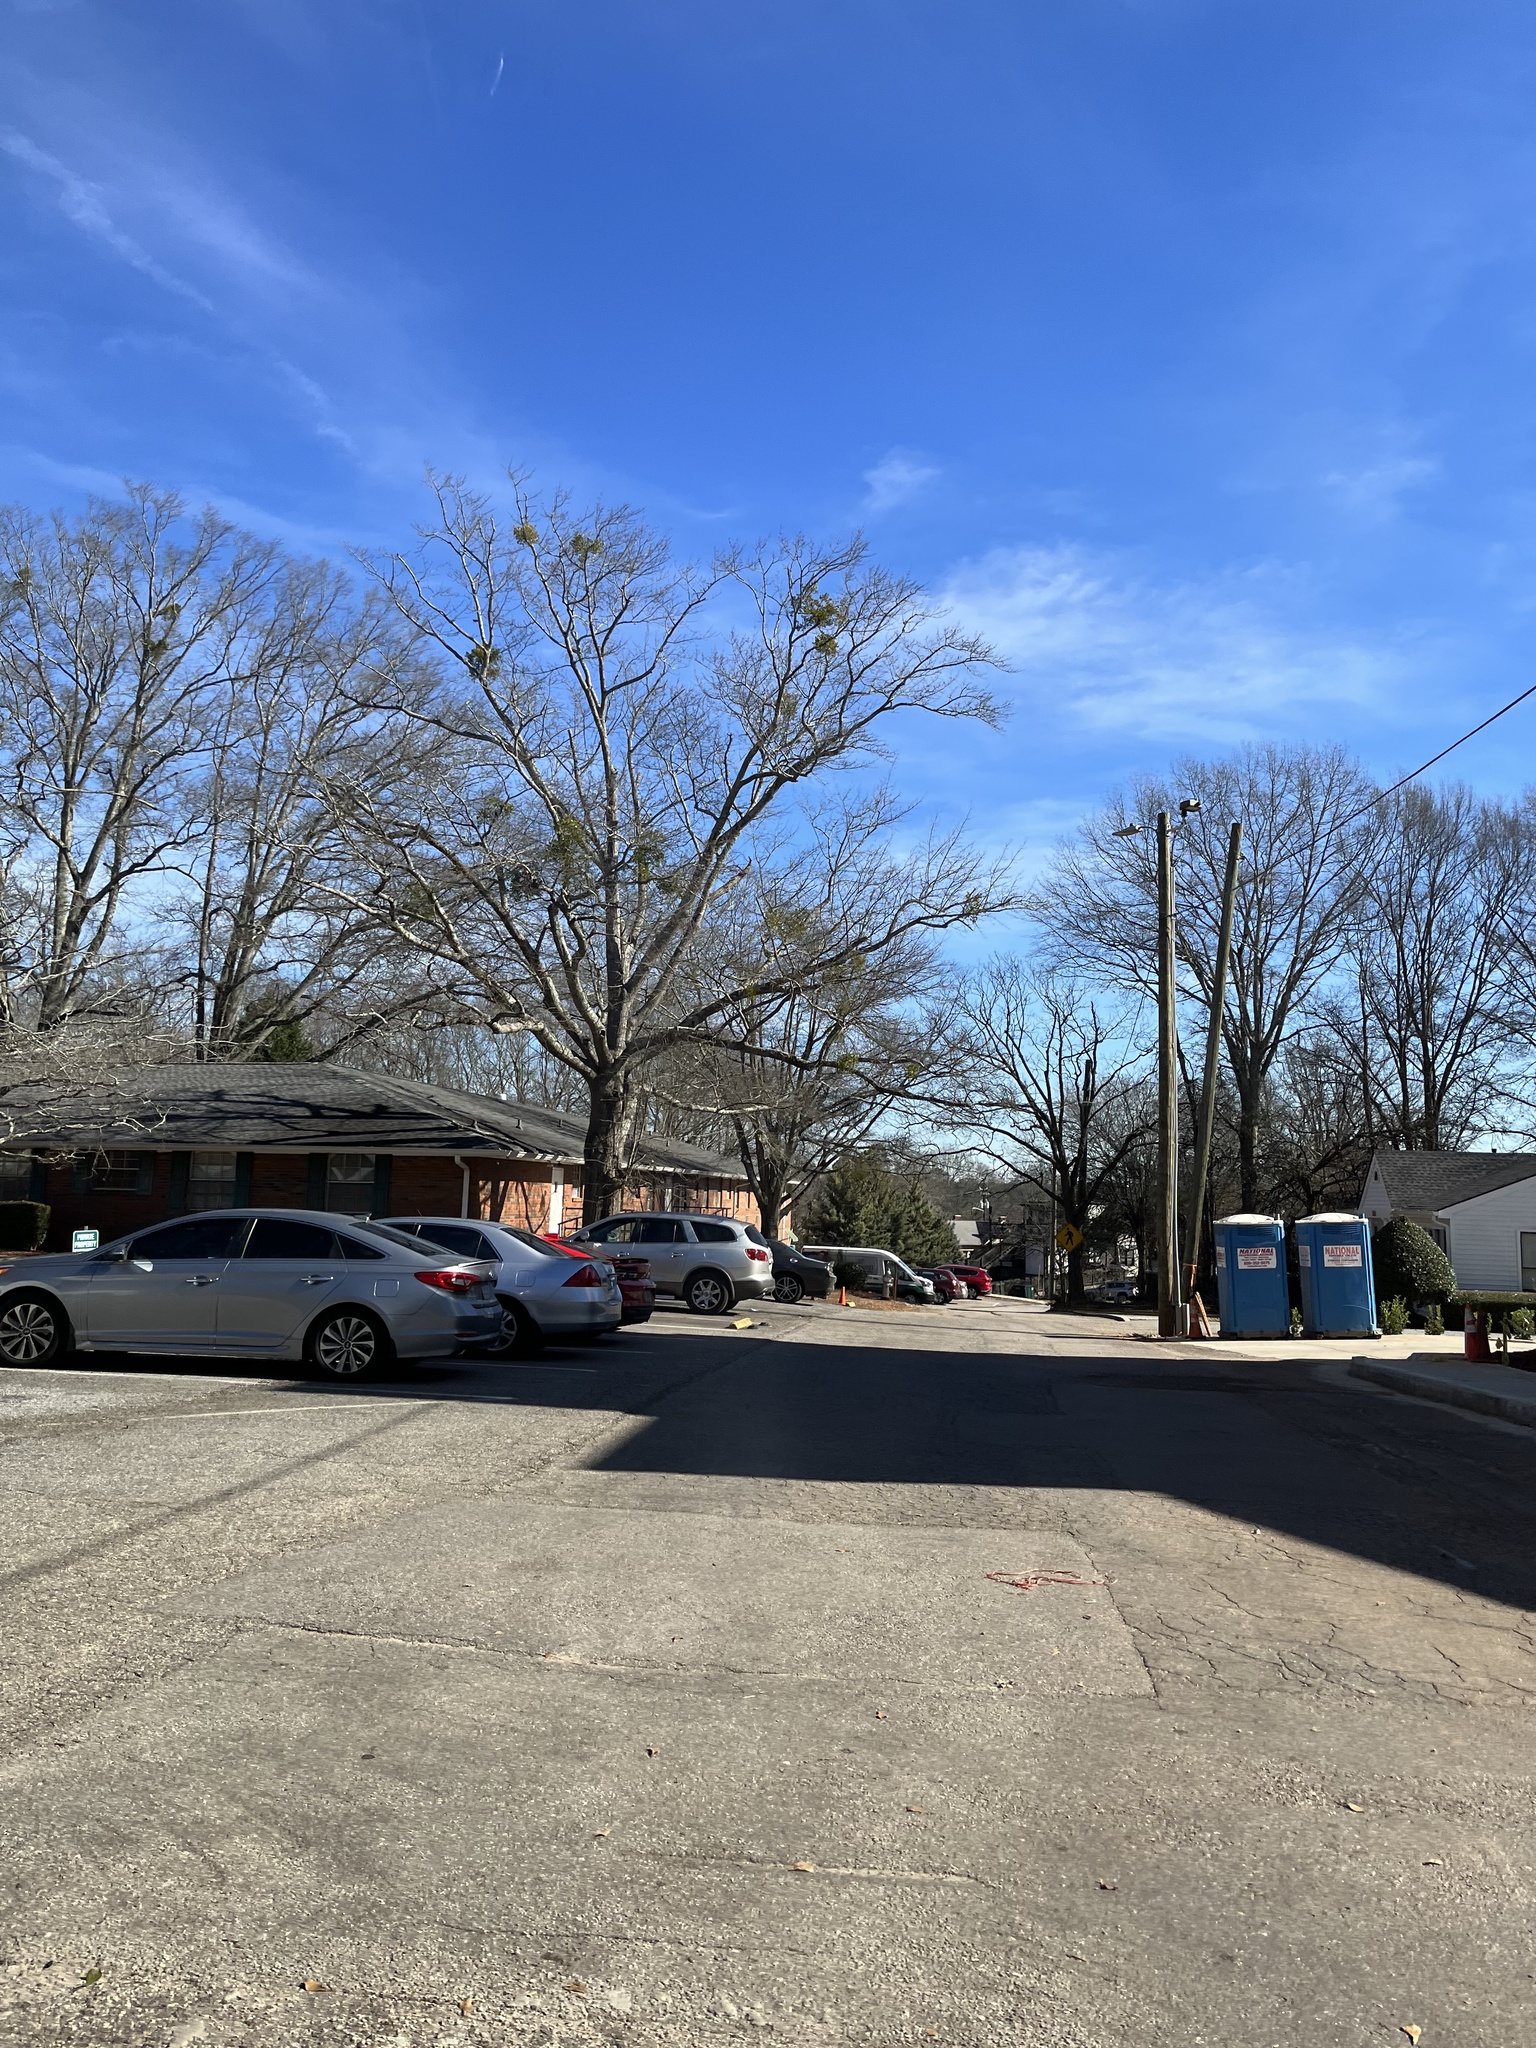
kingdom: Plantae
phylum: Tracheophyta
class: Magnoliopsida
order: Santalales
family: Viscaceae
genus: Phoradendron
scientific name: Phoradendron leucarpum
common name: Pacific mistletoe
